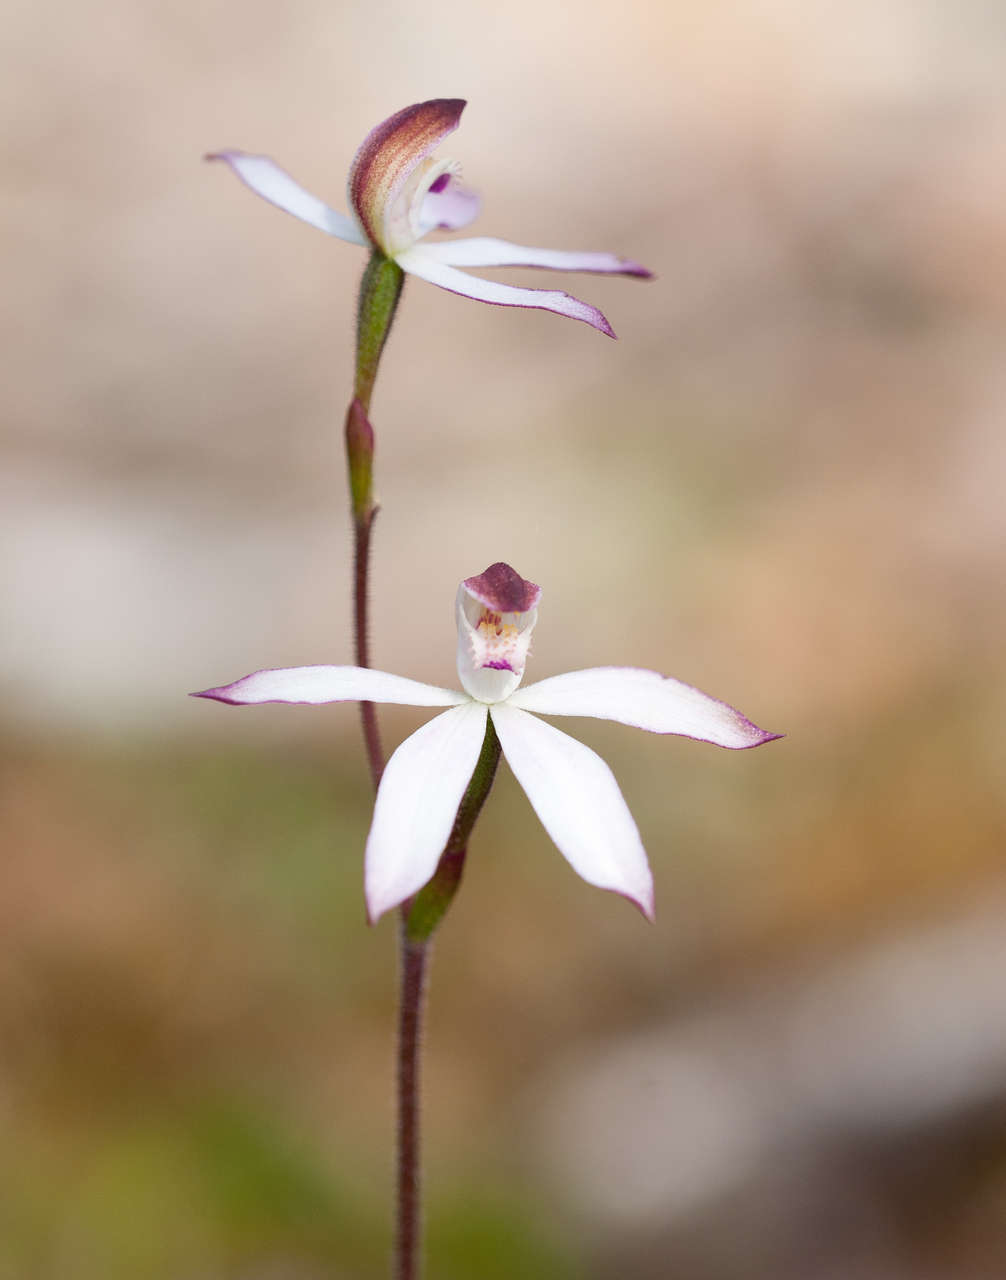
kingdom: Plantae
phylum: Tracheophyta
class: Liliopsida
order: Asparagales
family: Orchidaceae
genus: Caladenia
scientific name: Caladenia moschata
